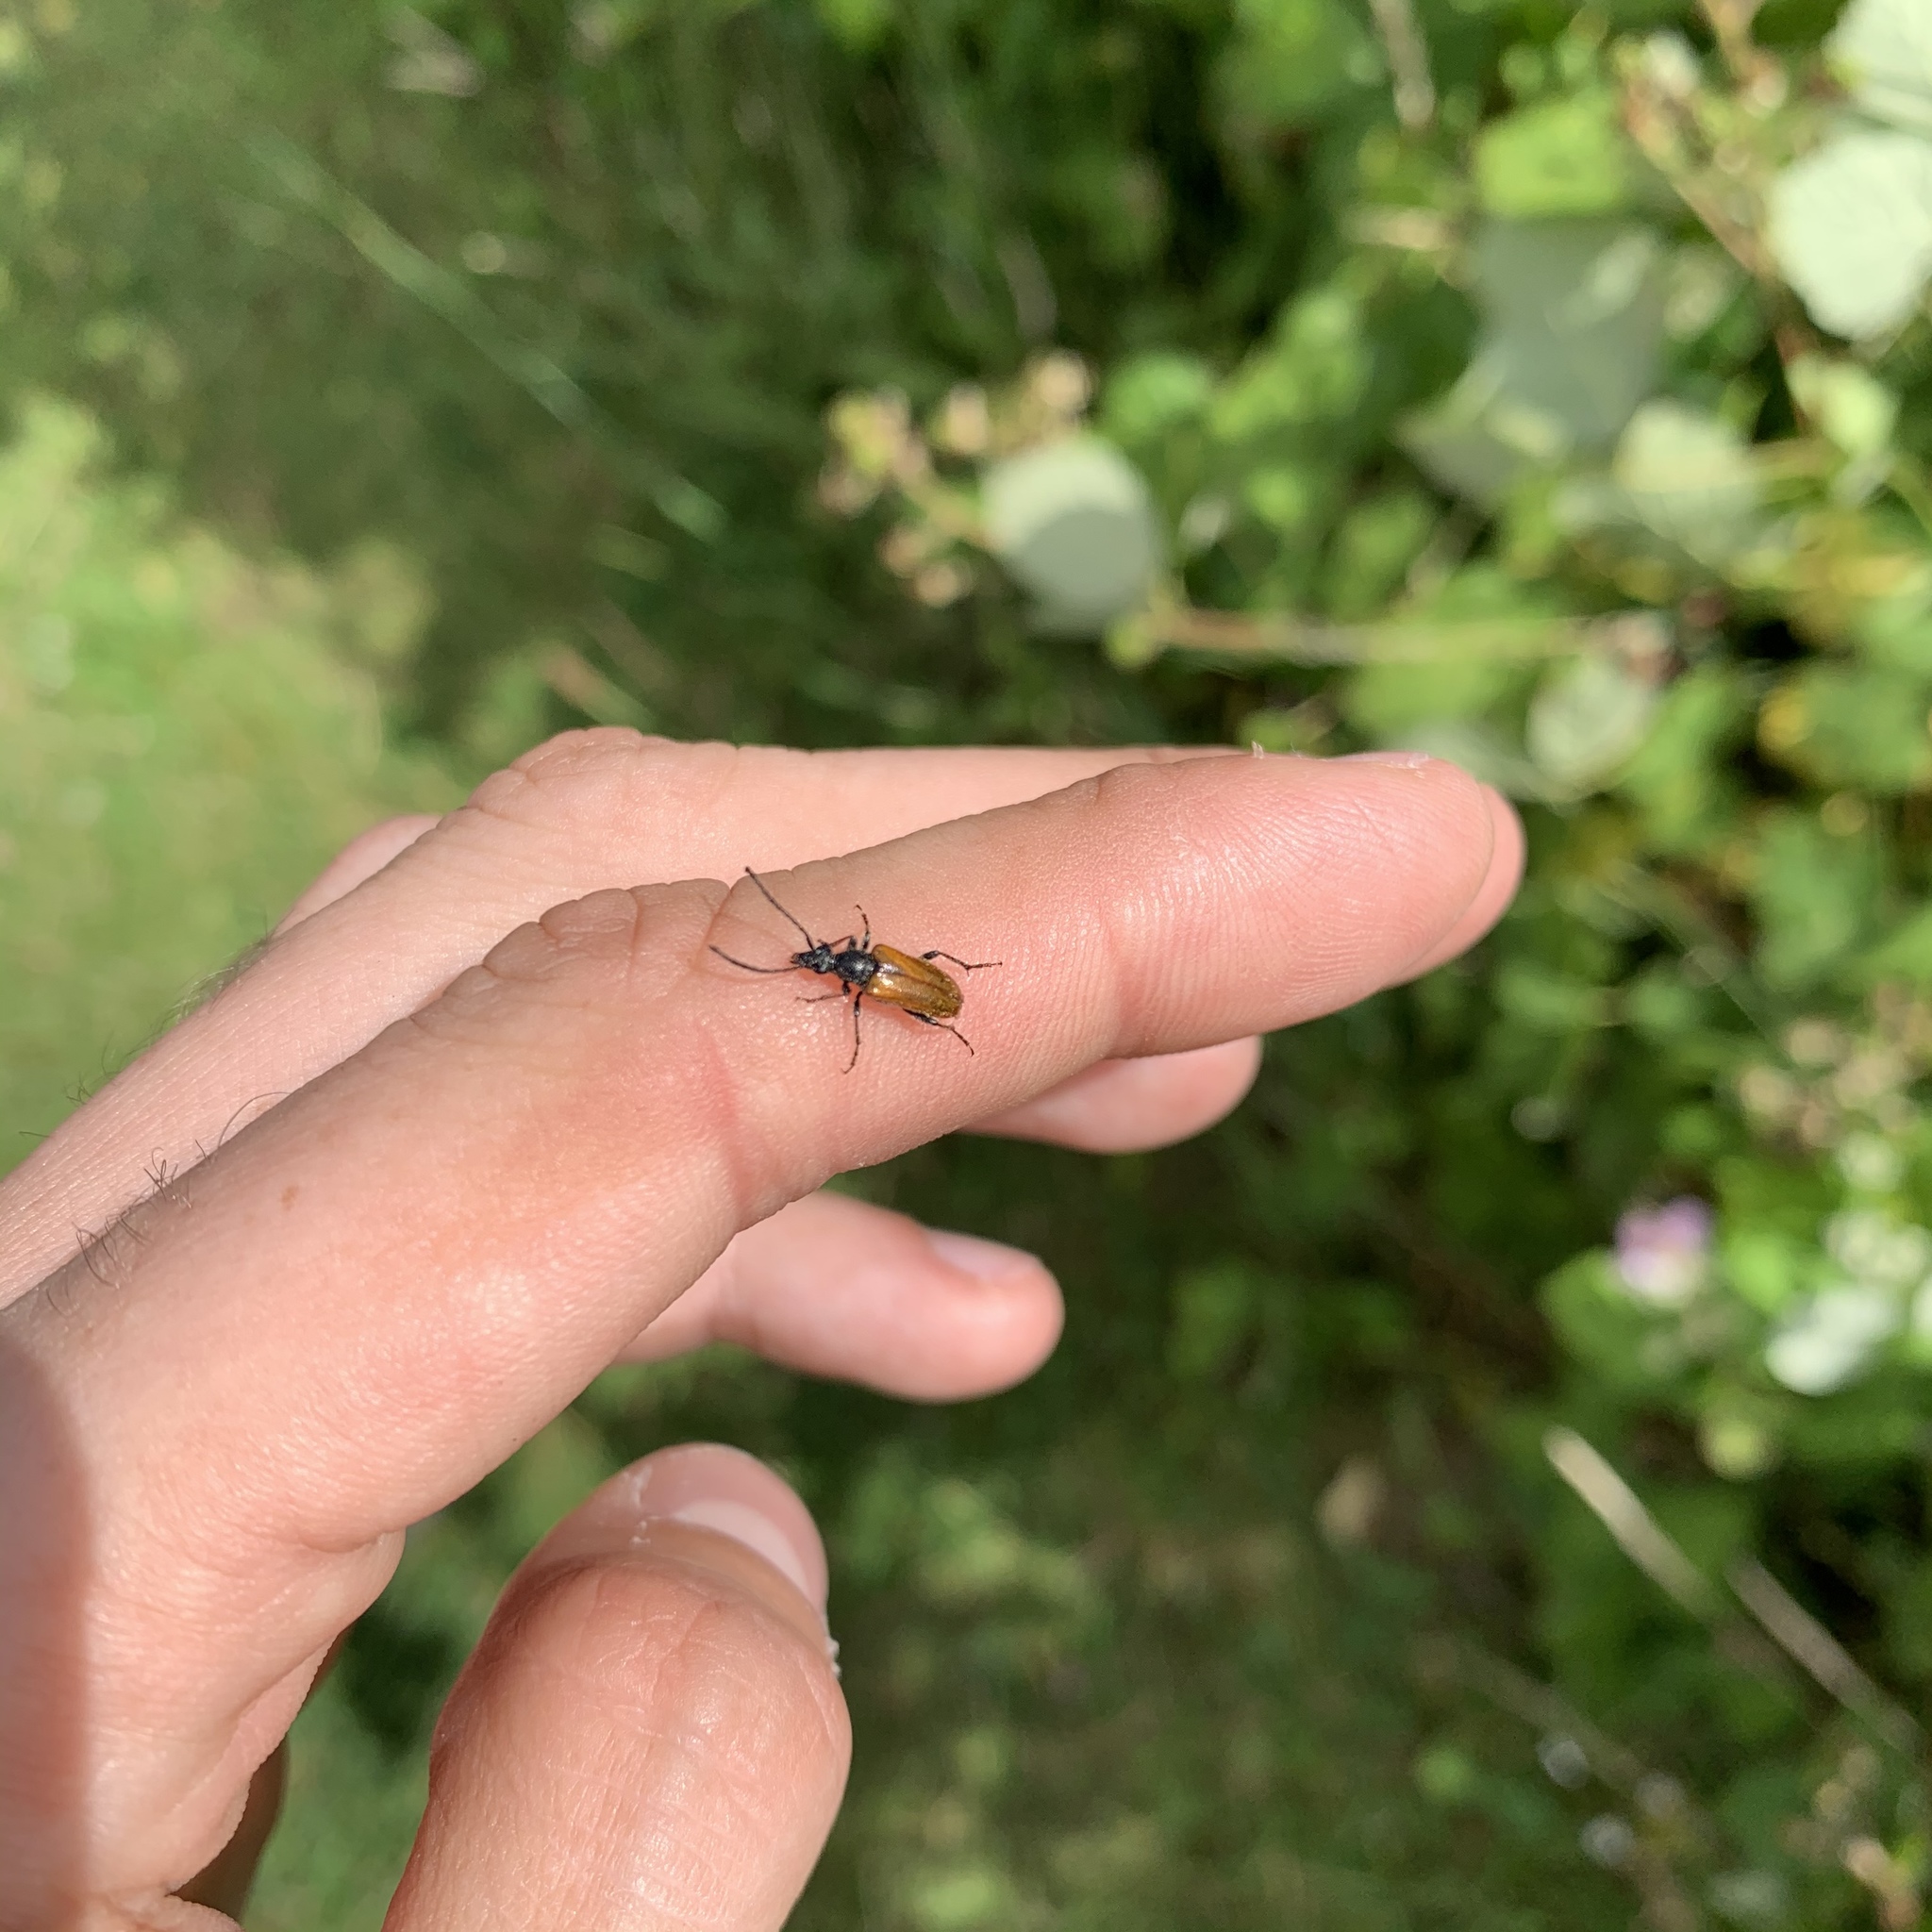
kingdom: Animalia
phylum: Arthropoda
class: Insecta
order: Coleoptera
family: Cerambycidae
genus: Pseudovadonia
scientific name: Pseudovadonia livida
